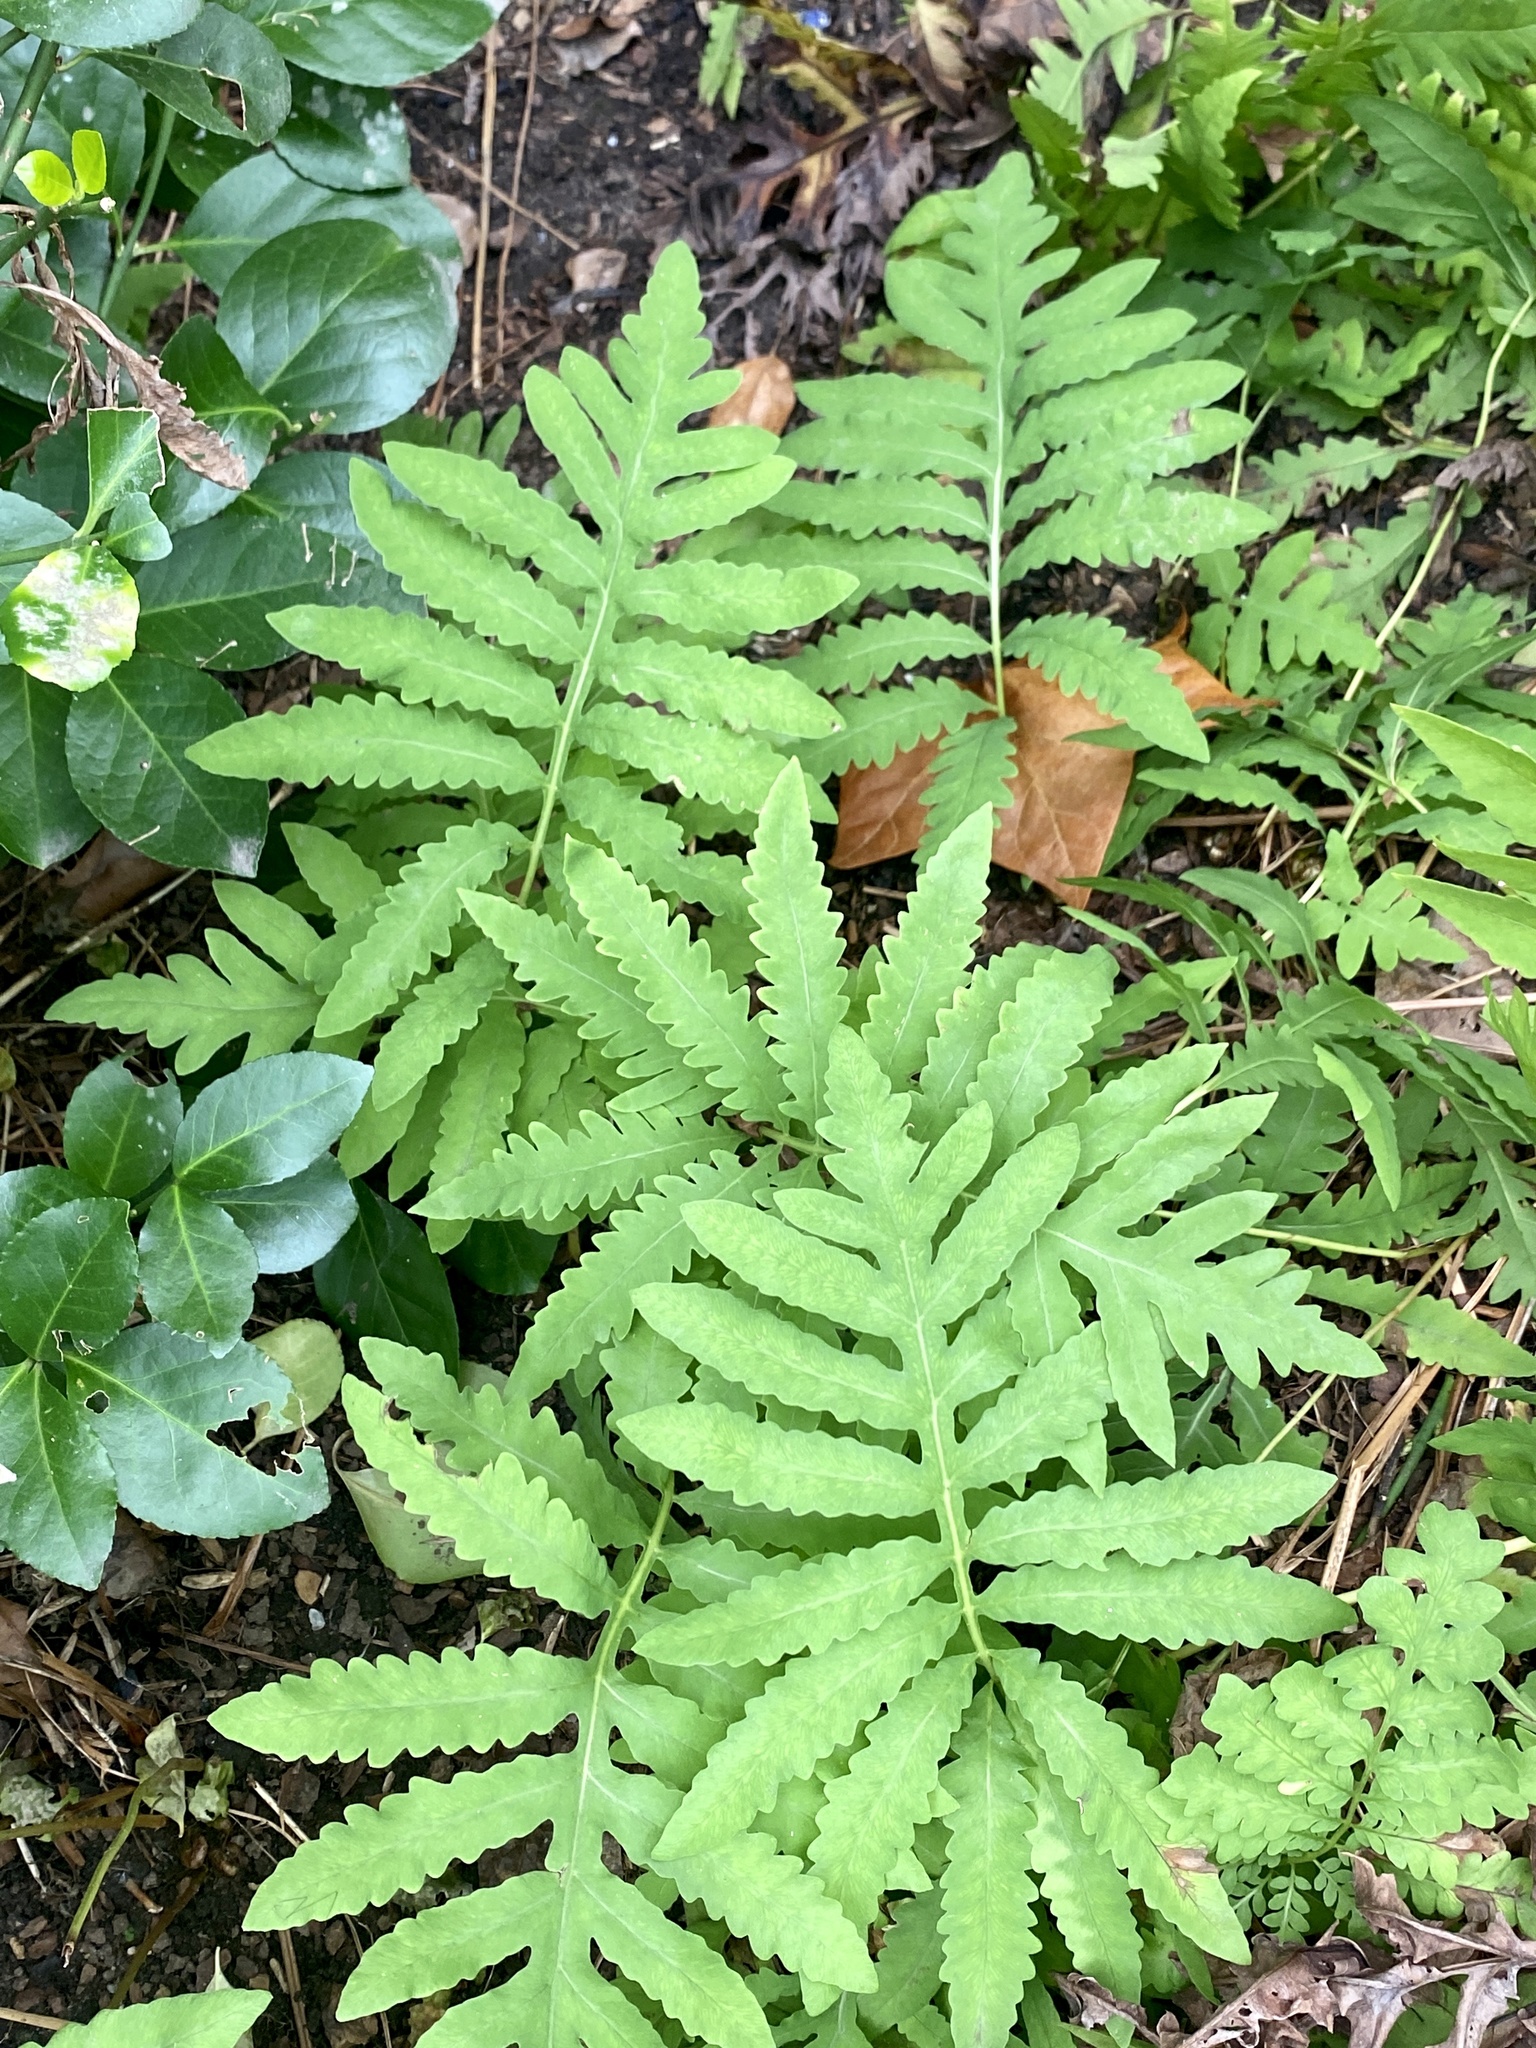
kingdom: Plantae
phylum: Tracheophyta
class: Polypodiopsida
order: Polypodiales
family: Onocleaceae
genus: Onoclea
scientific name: Onoclea sensibilis
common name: Sensitive fern
